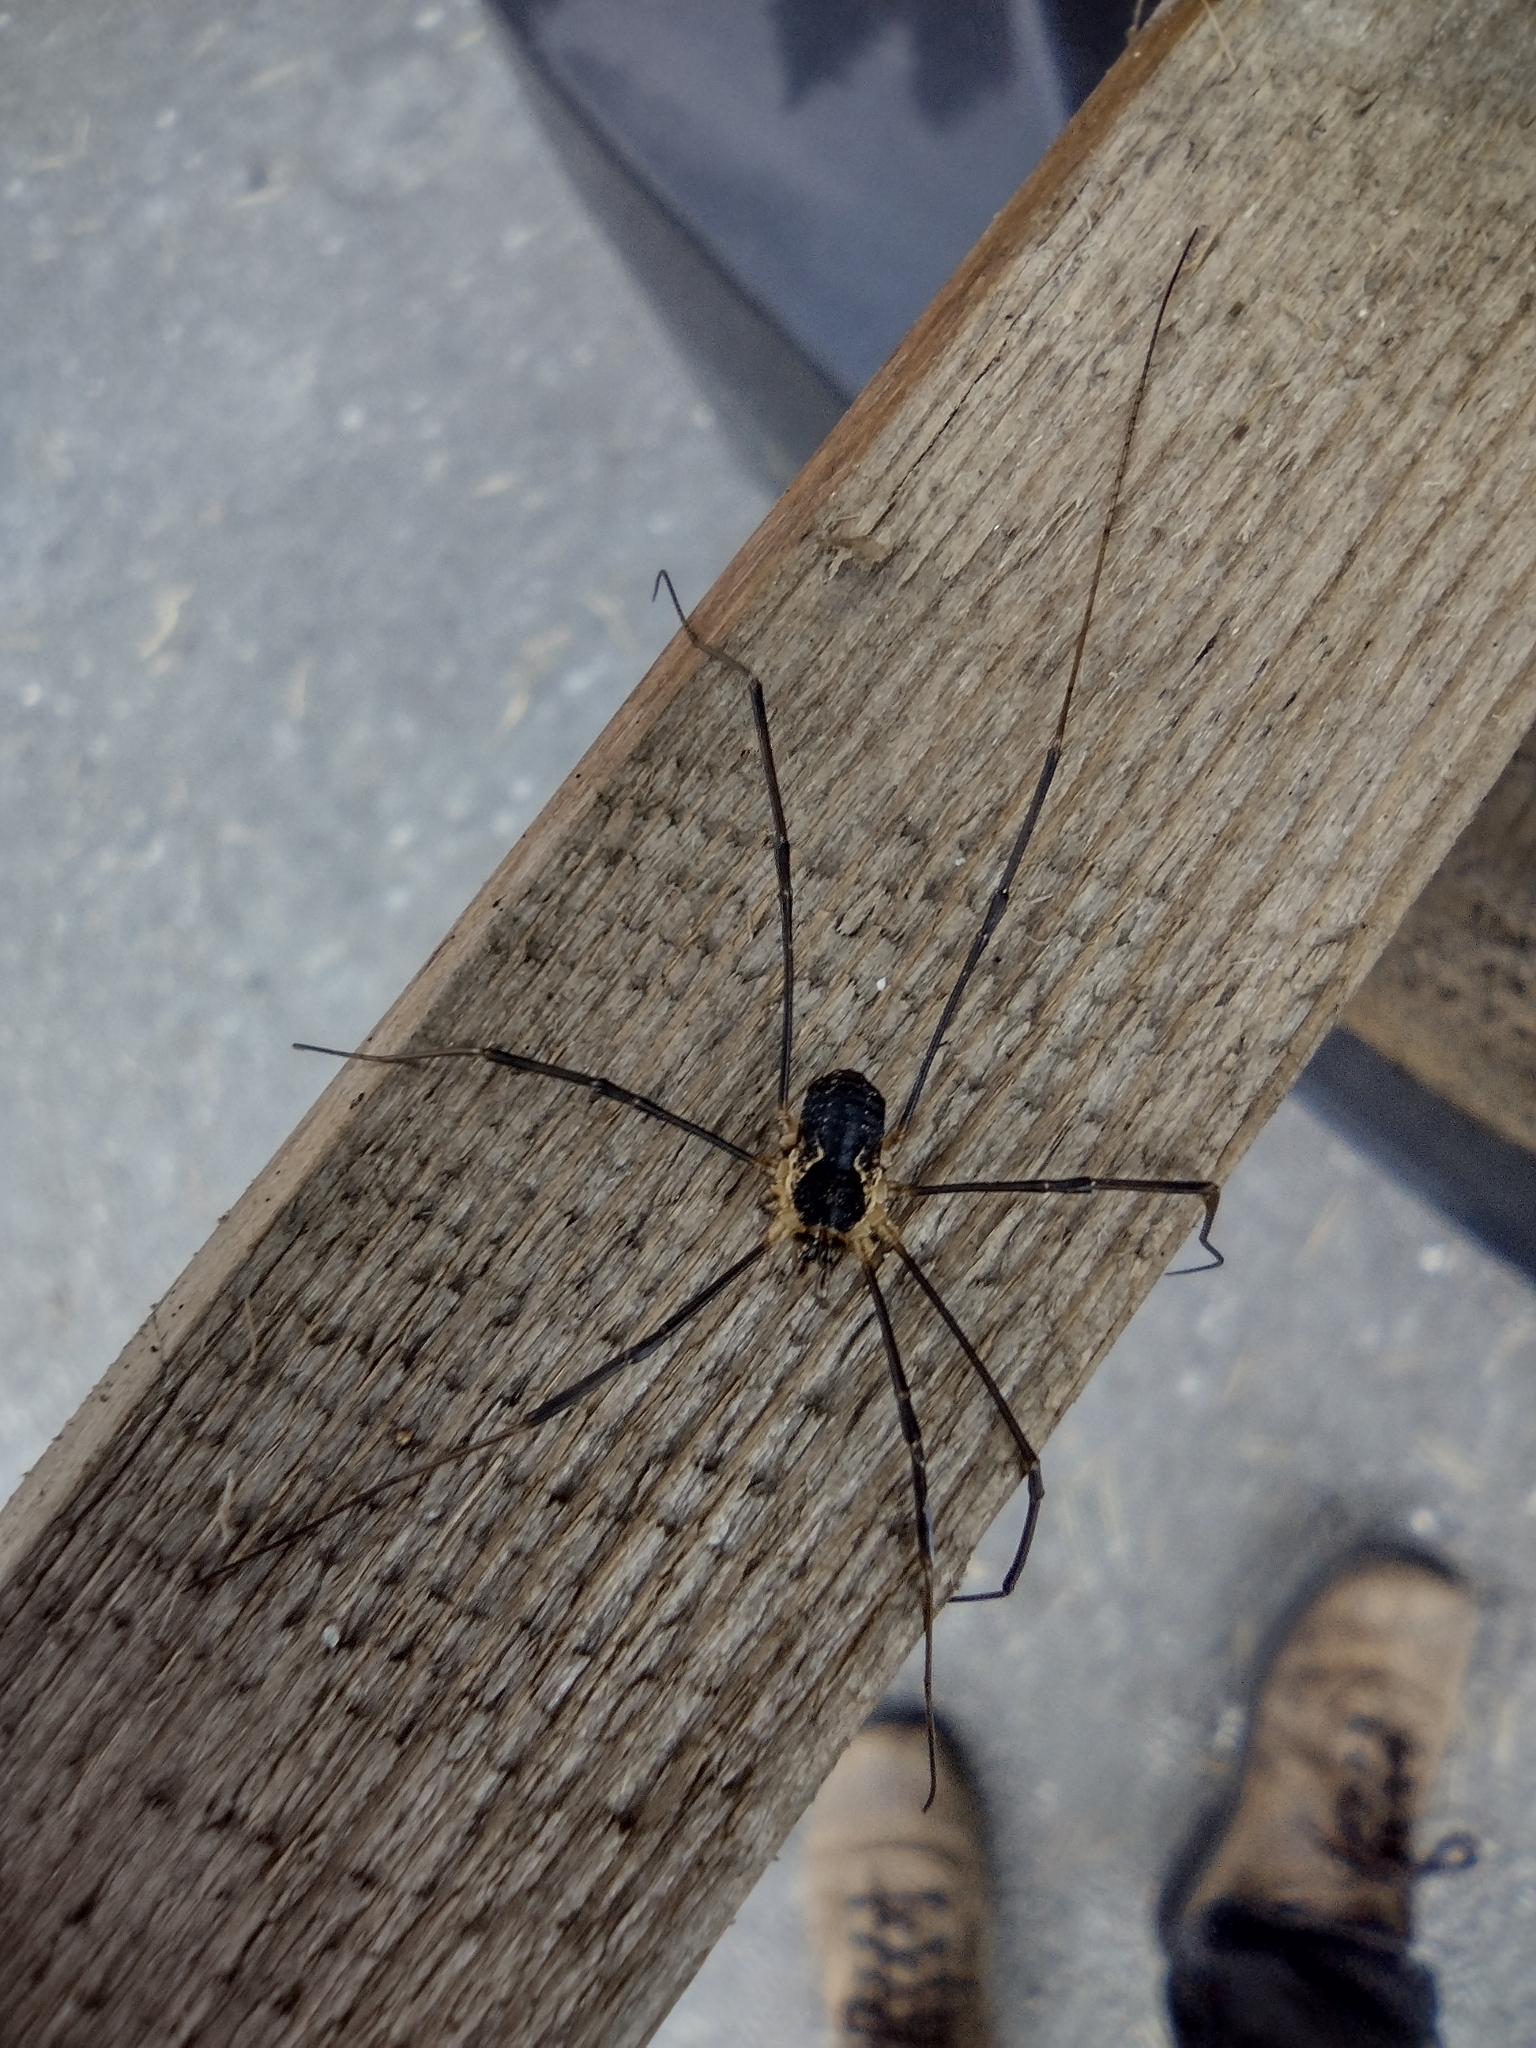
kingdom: Animalia
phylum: Arthropoda
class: Arachnida
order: Opiliones
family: Phalangiidae
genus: Mitopus
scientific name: Mitopus morio
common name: Saddleback harvestman
